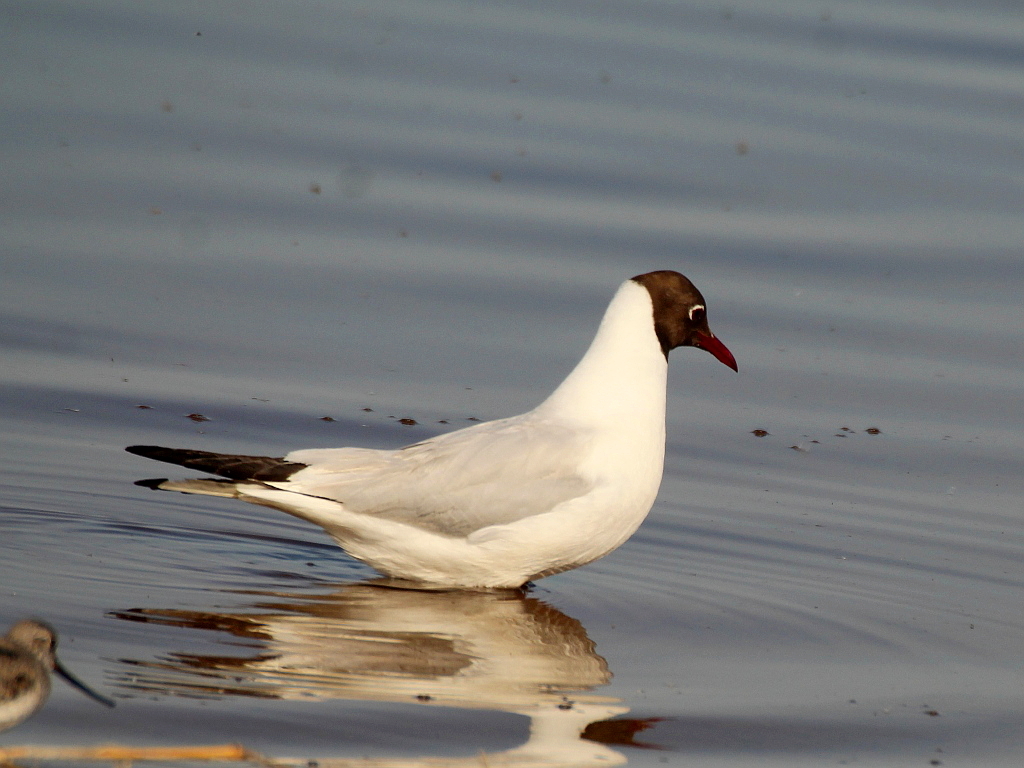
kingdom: Animalia
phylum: Chordata
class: Aves
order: Charadriiformes
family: Laridae
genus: Chroicocephalus
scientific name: Chroicocephalus ridibundus
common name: Black-headed gull
